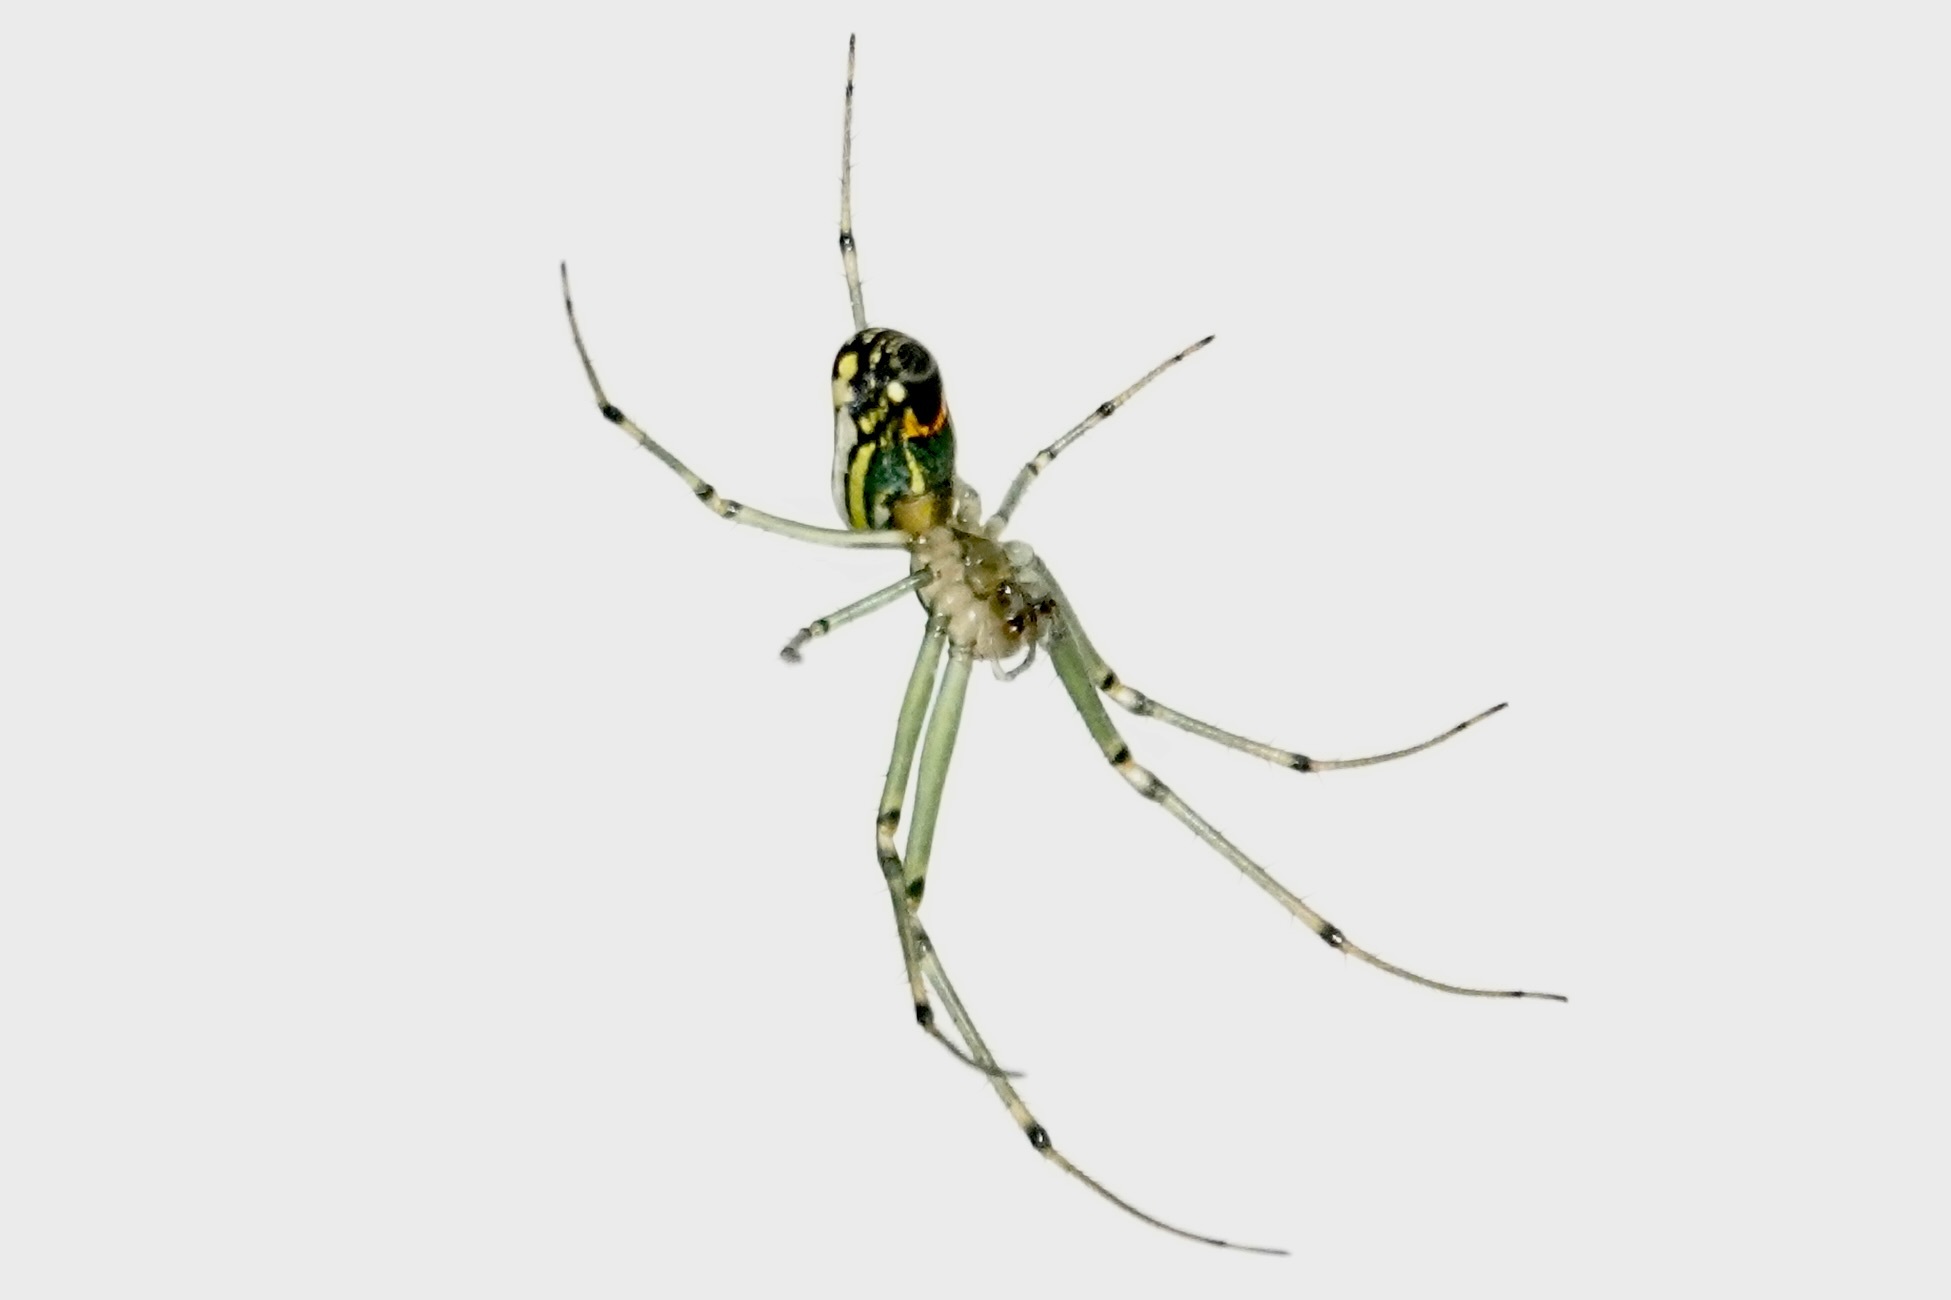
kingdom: Animalia
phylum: Arthropoda
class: Arachnida
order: Araneae
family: Tetragnathidae
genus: Leucauge
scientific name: Leucauge venusta
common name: Longjawed orb weavers
